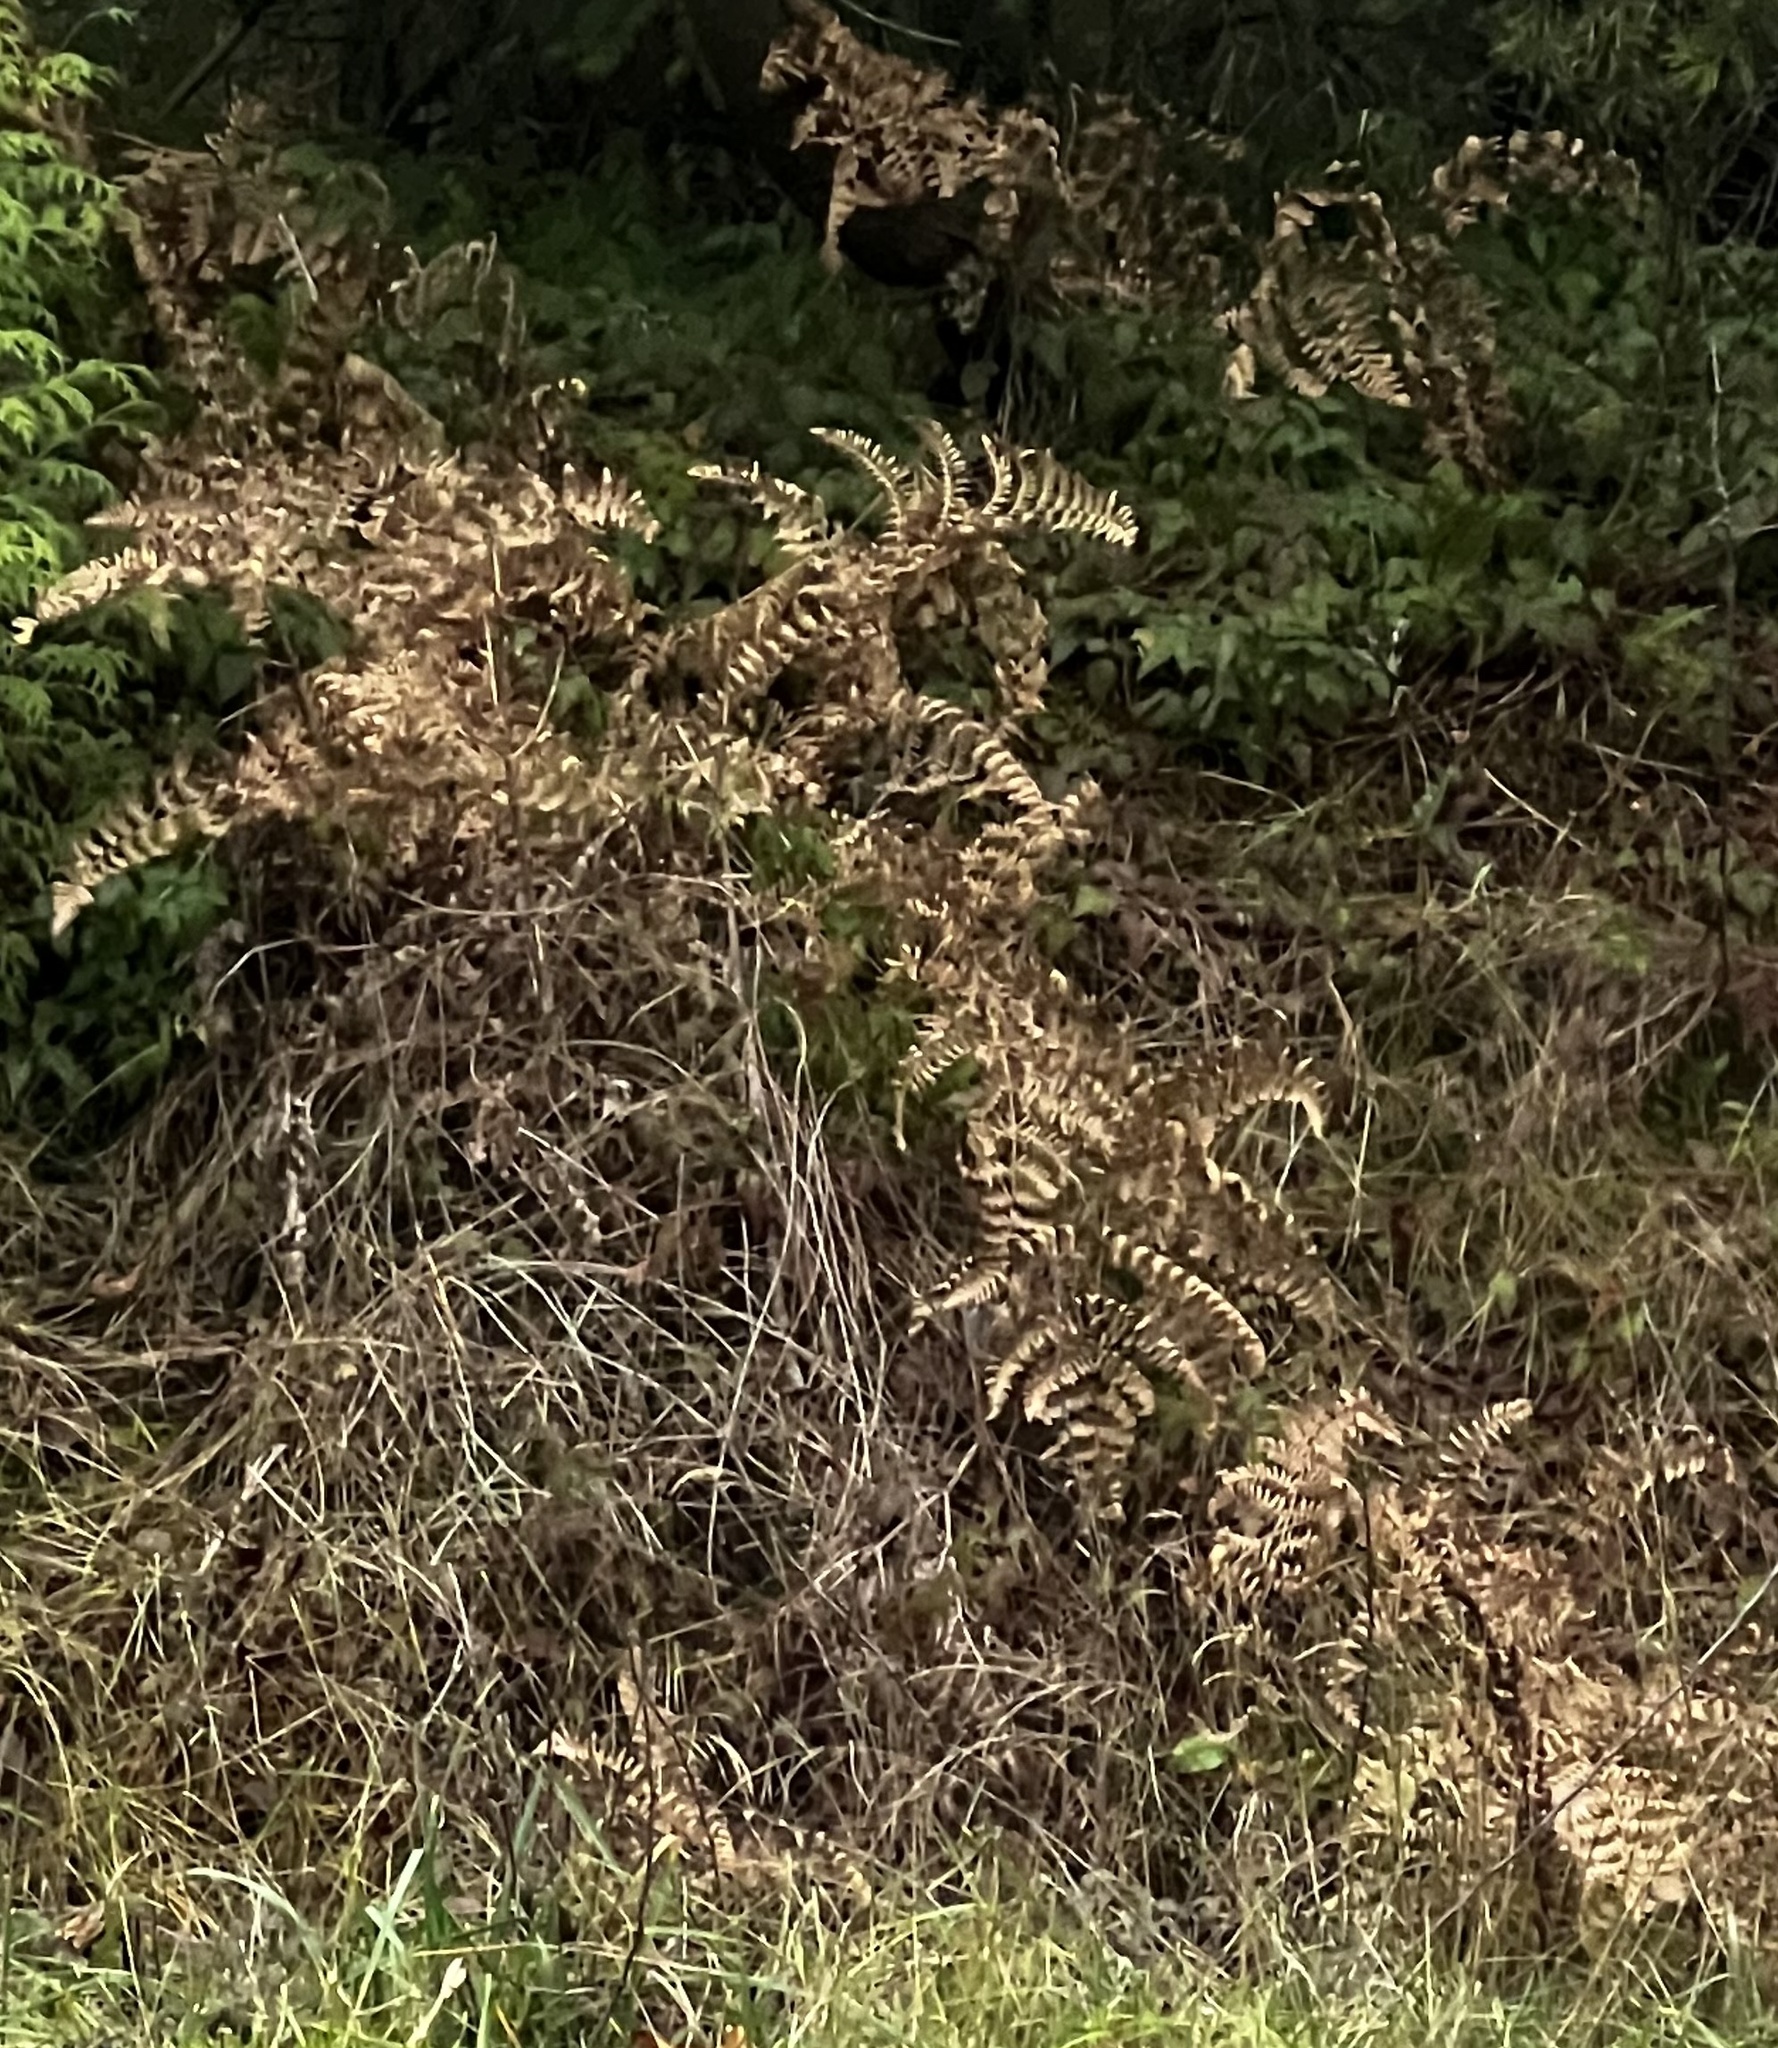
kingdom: Plantae
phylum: Tracheophyta
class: Polypodiopsida
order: Polypodiales
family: Dennstaedtiaceae
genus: Pteridium
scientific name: Pteridium aquilinum
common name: Bracken
